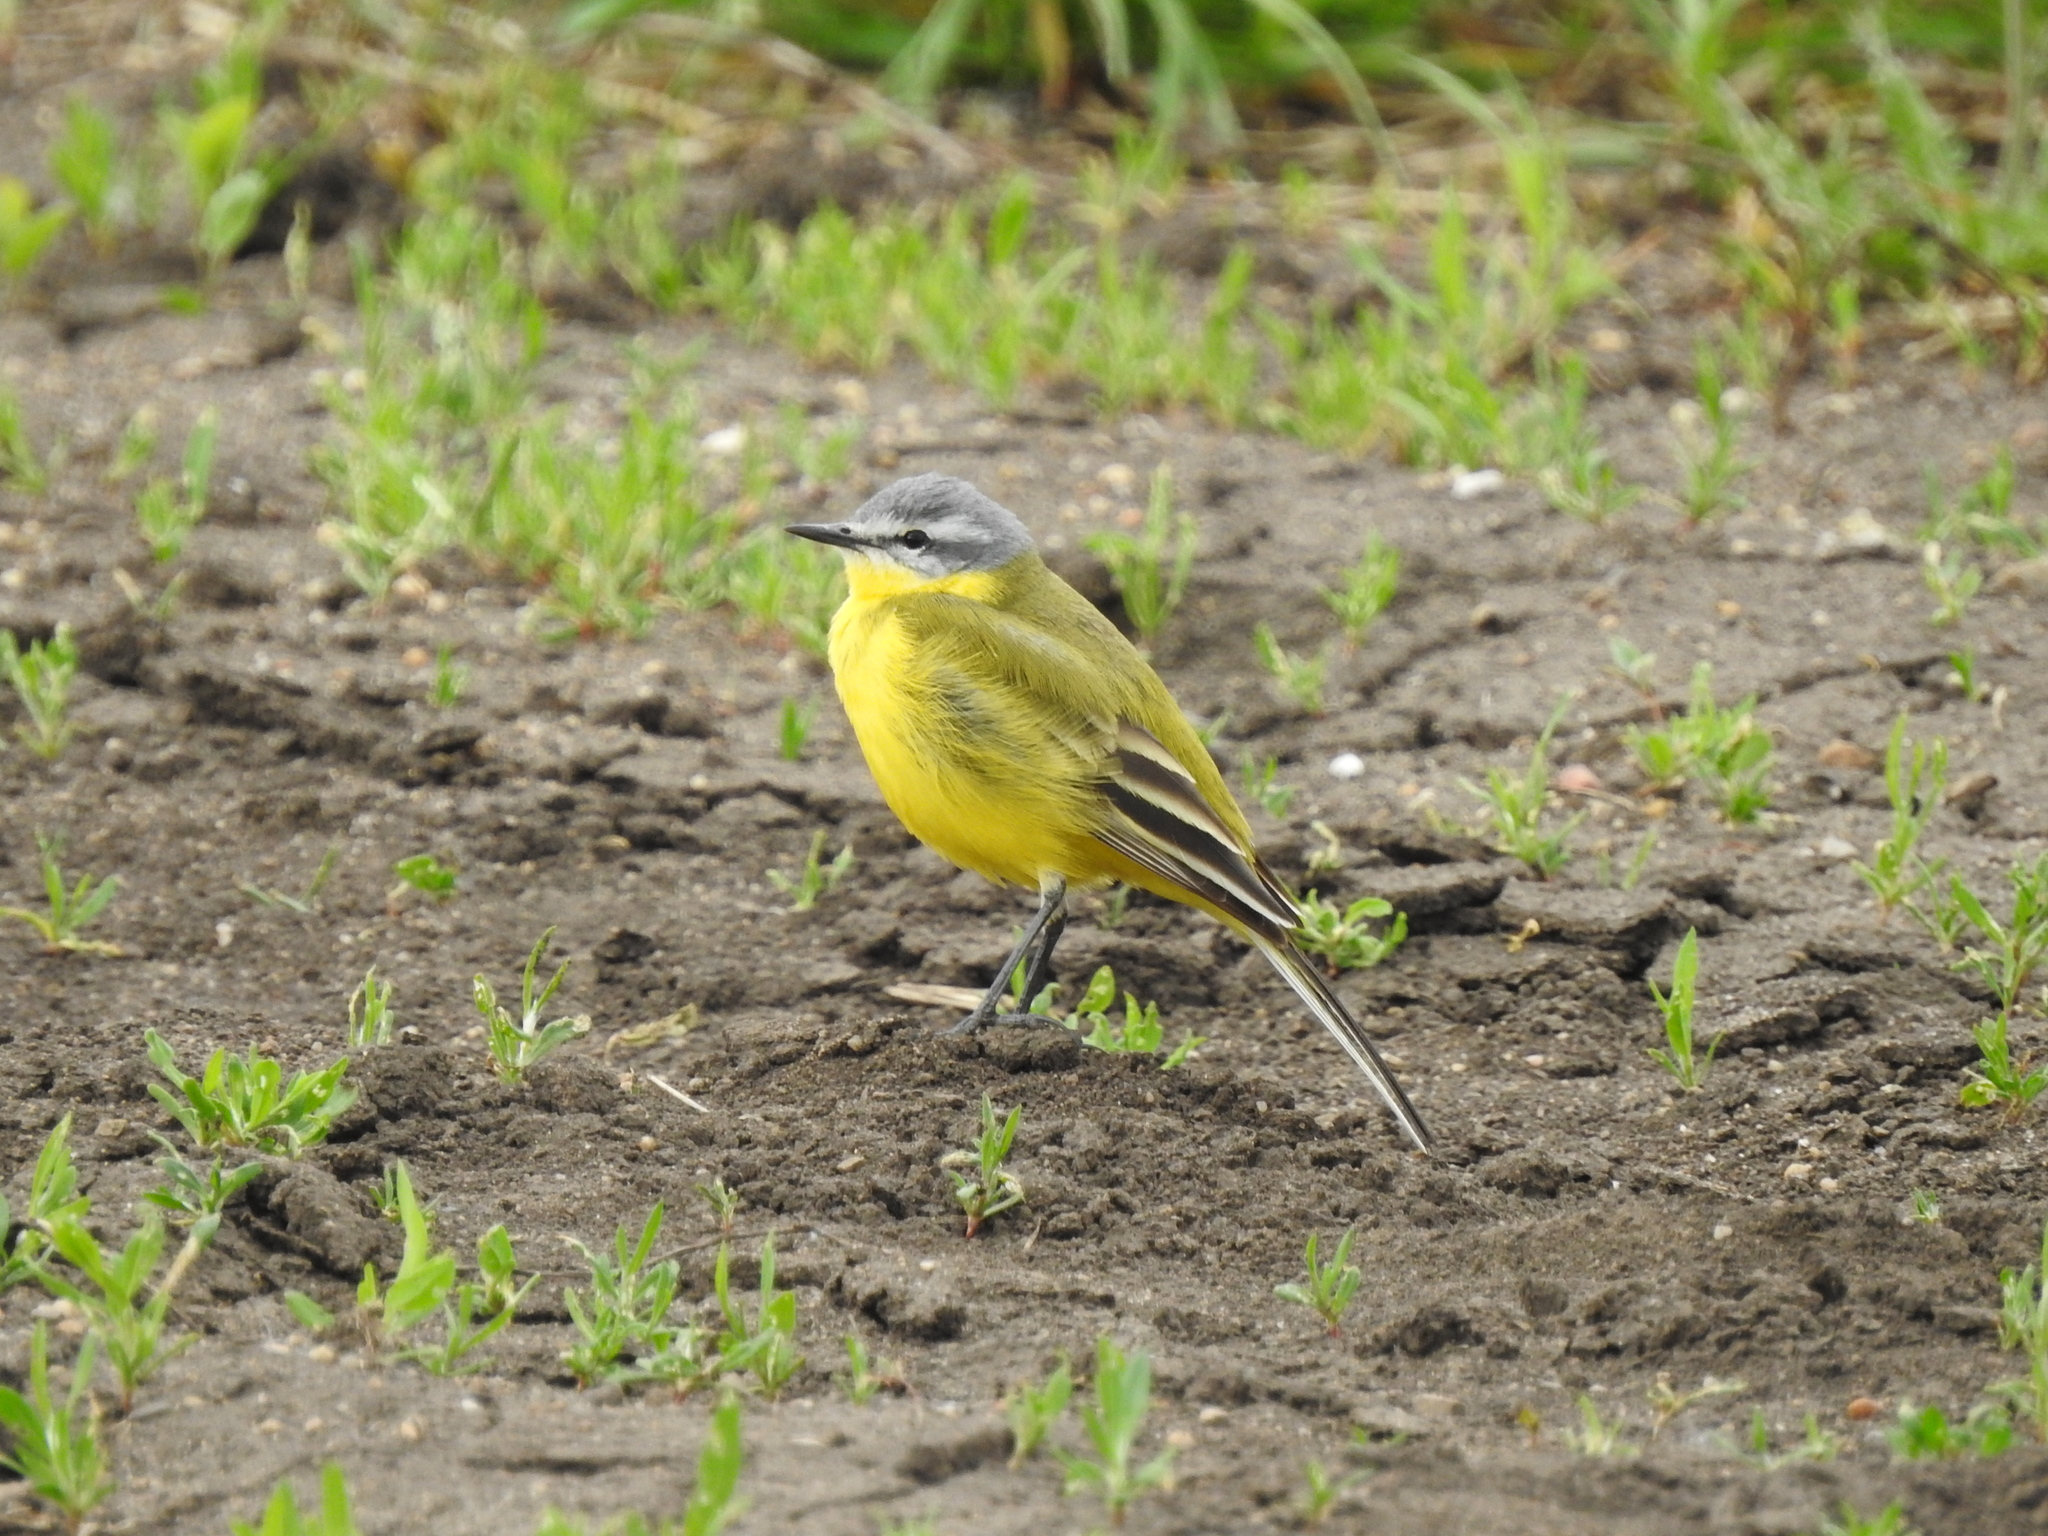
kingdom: Animalia
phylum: Chordata
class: Aves
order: Passeriformes
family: Motacillidae
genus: Motacilla
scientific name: Motacilla flava
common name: Western yellow wagtail
